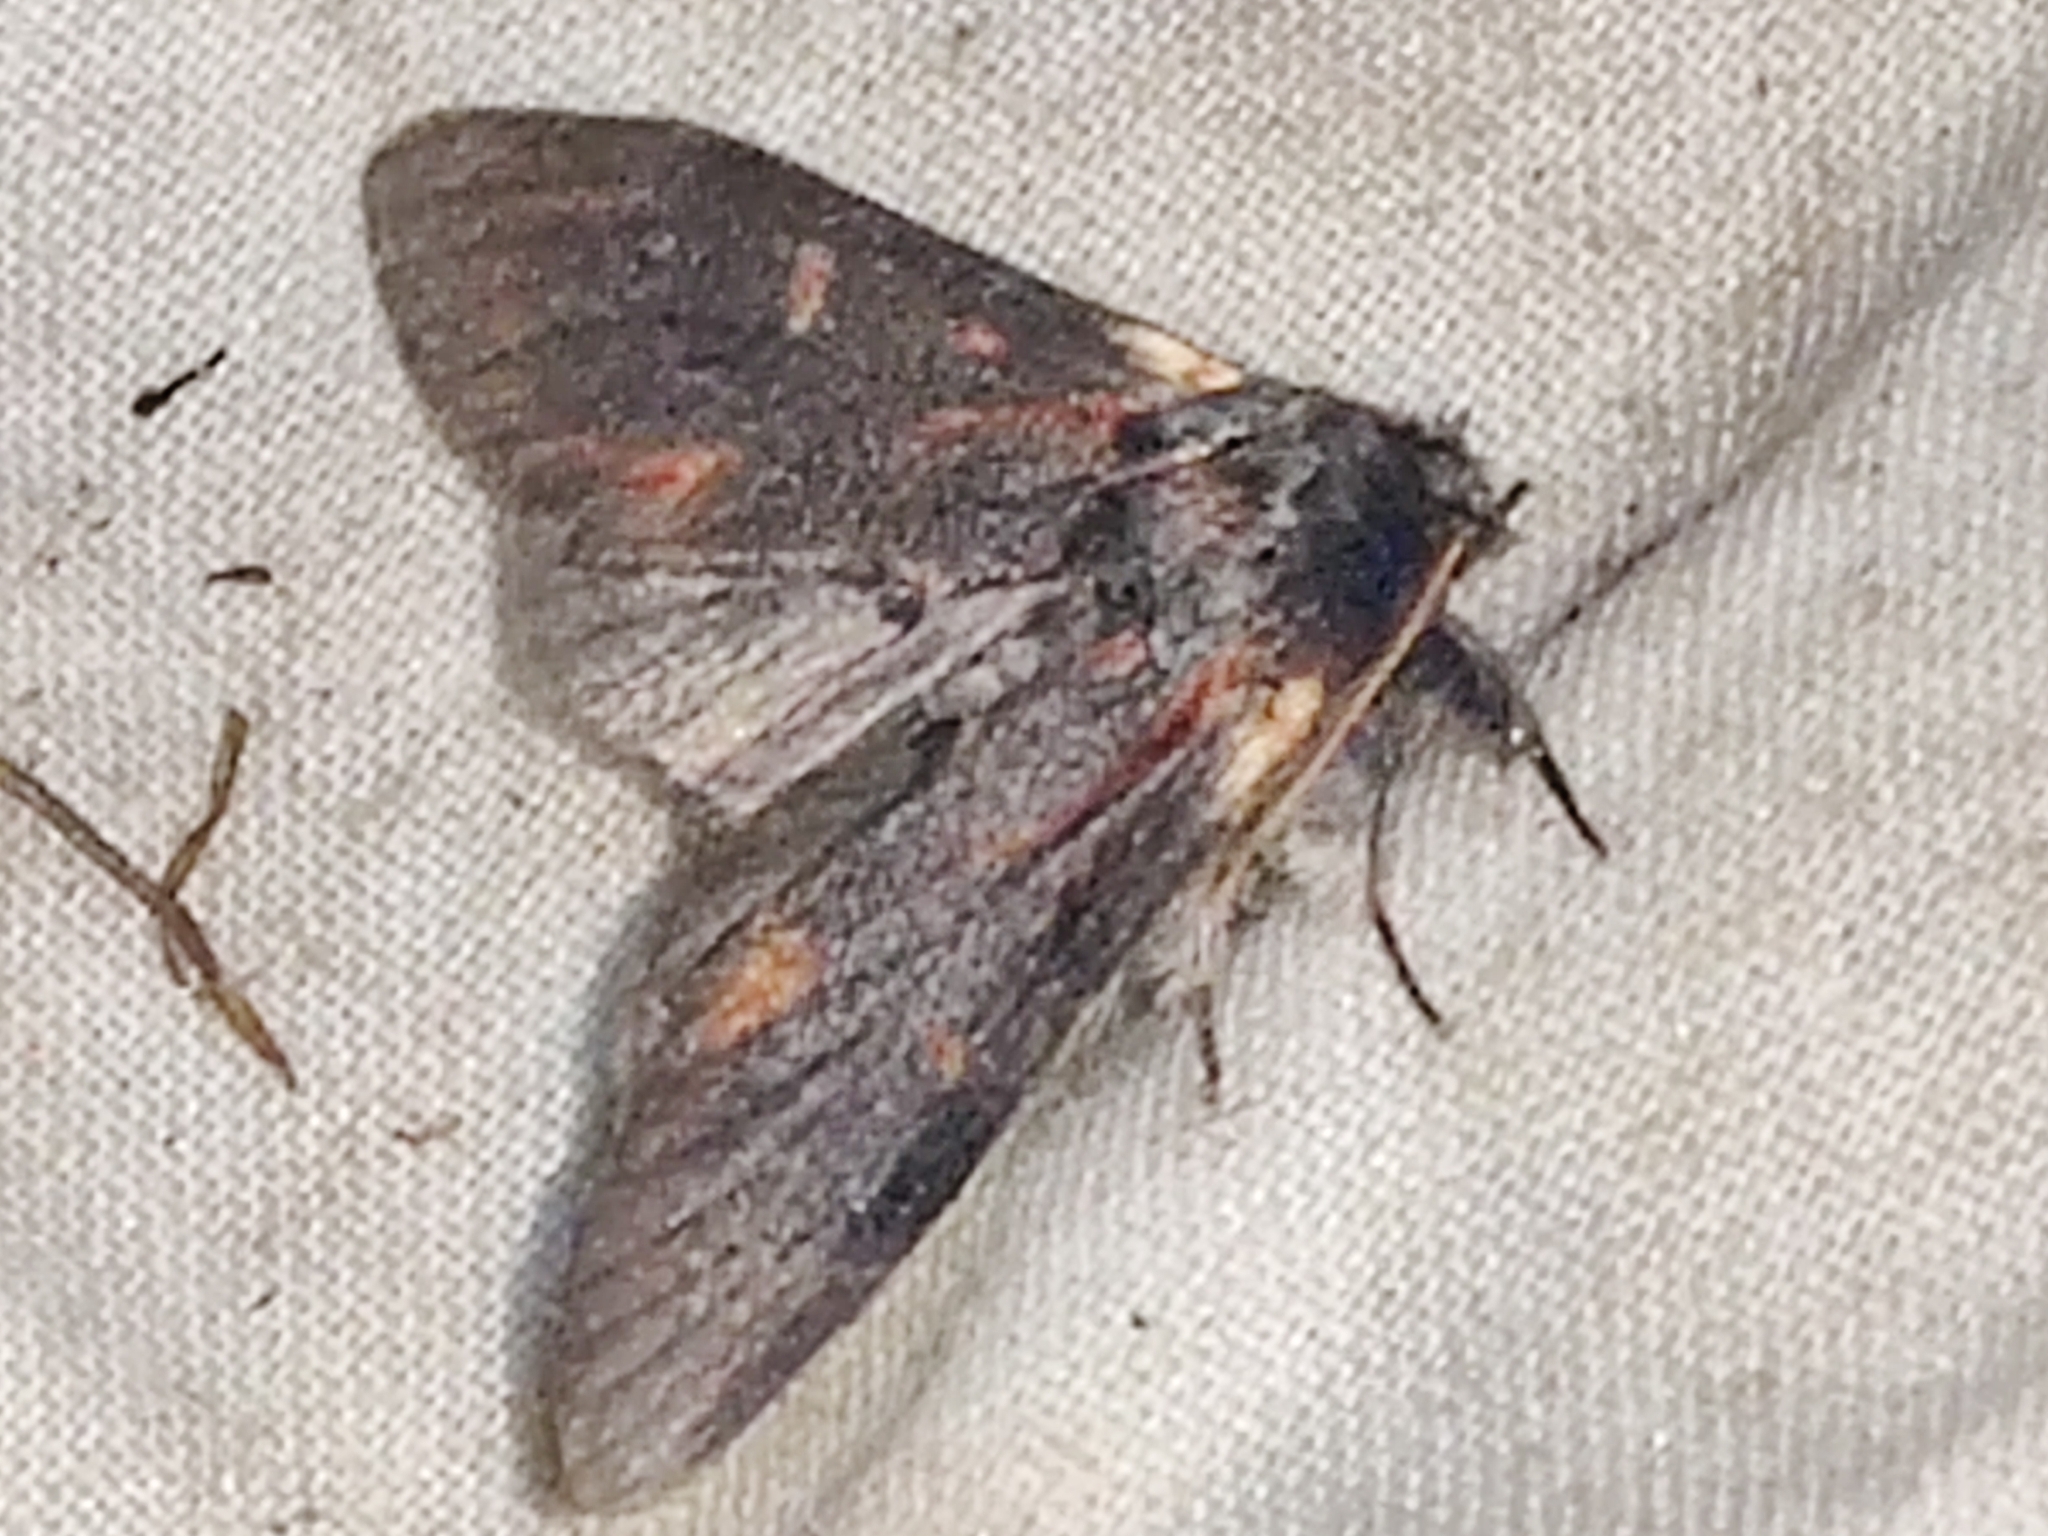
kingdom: Animalia
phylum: Arthropoda
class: Insecta
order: Lepidoptera
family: Notodontidae
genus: Notodonta
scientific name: Notodonta dromedarius
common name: Iron prominent
